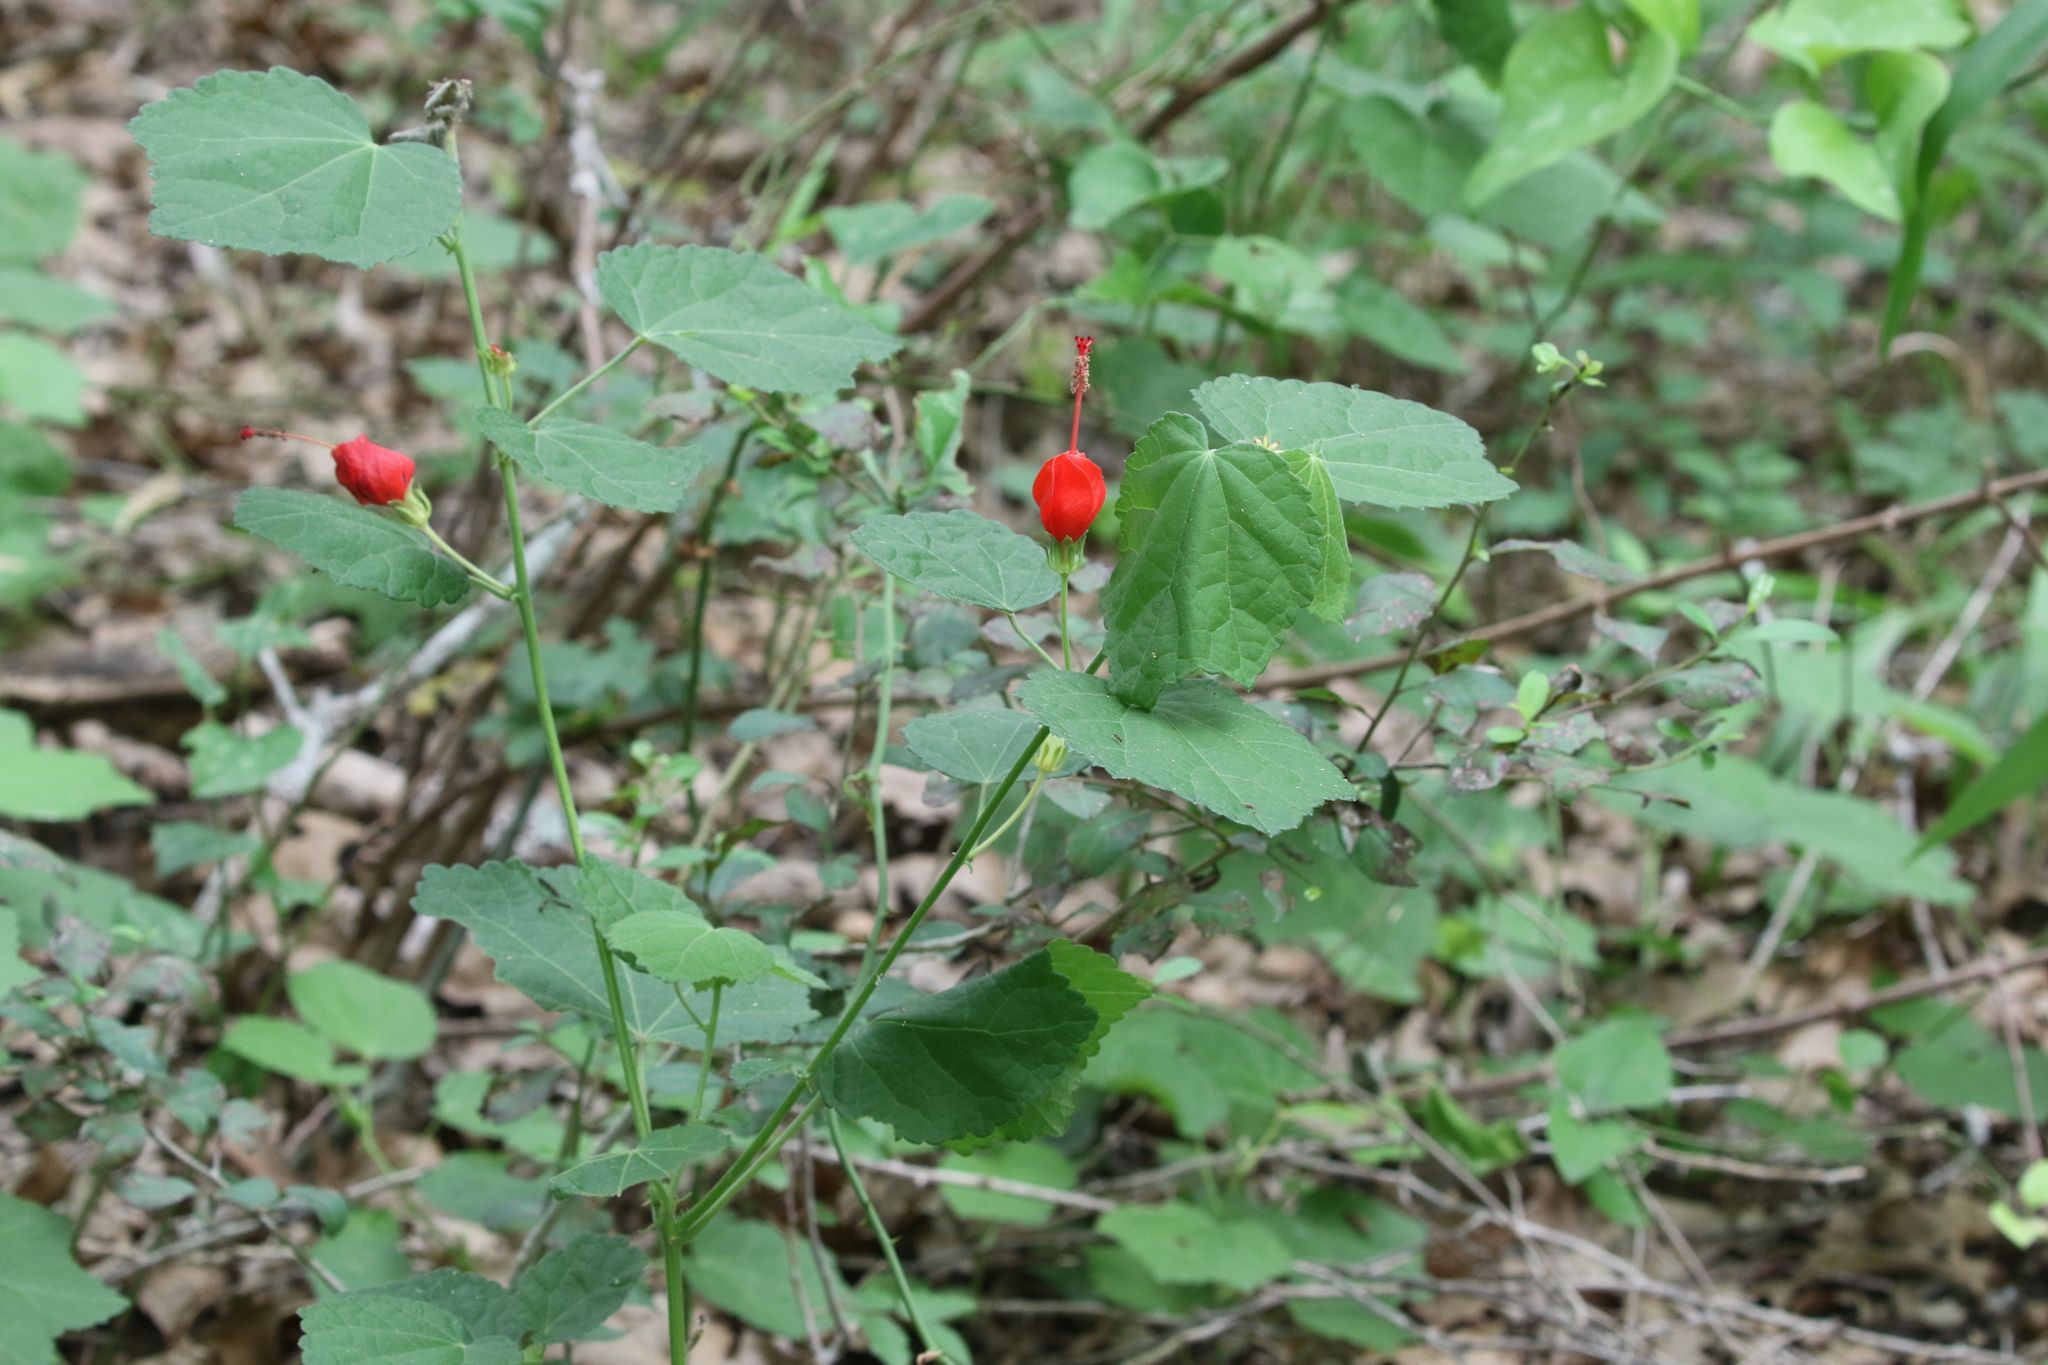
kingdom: Plantae
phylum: Tracheophyta
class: Magnoliopsida
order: Malvales
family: Malvaceae
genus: Malvaviscus
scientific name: Malvaviscus arboreus
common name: Wax mallow
